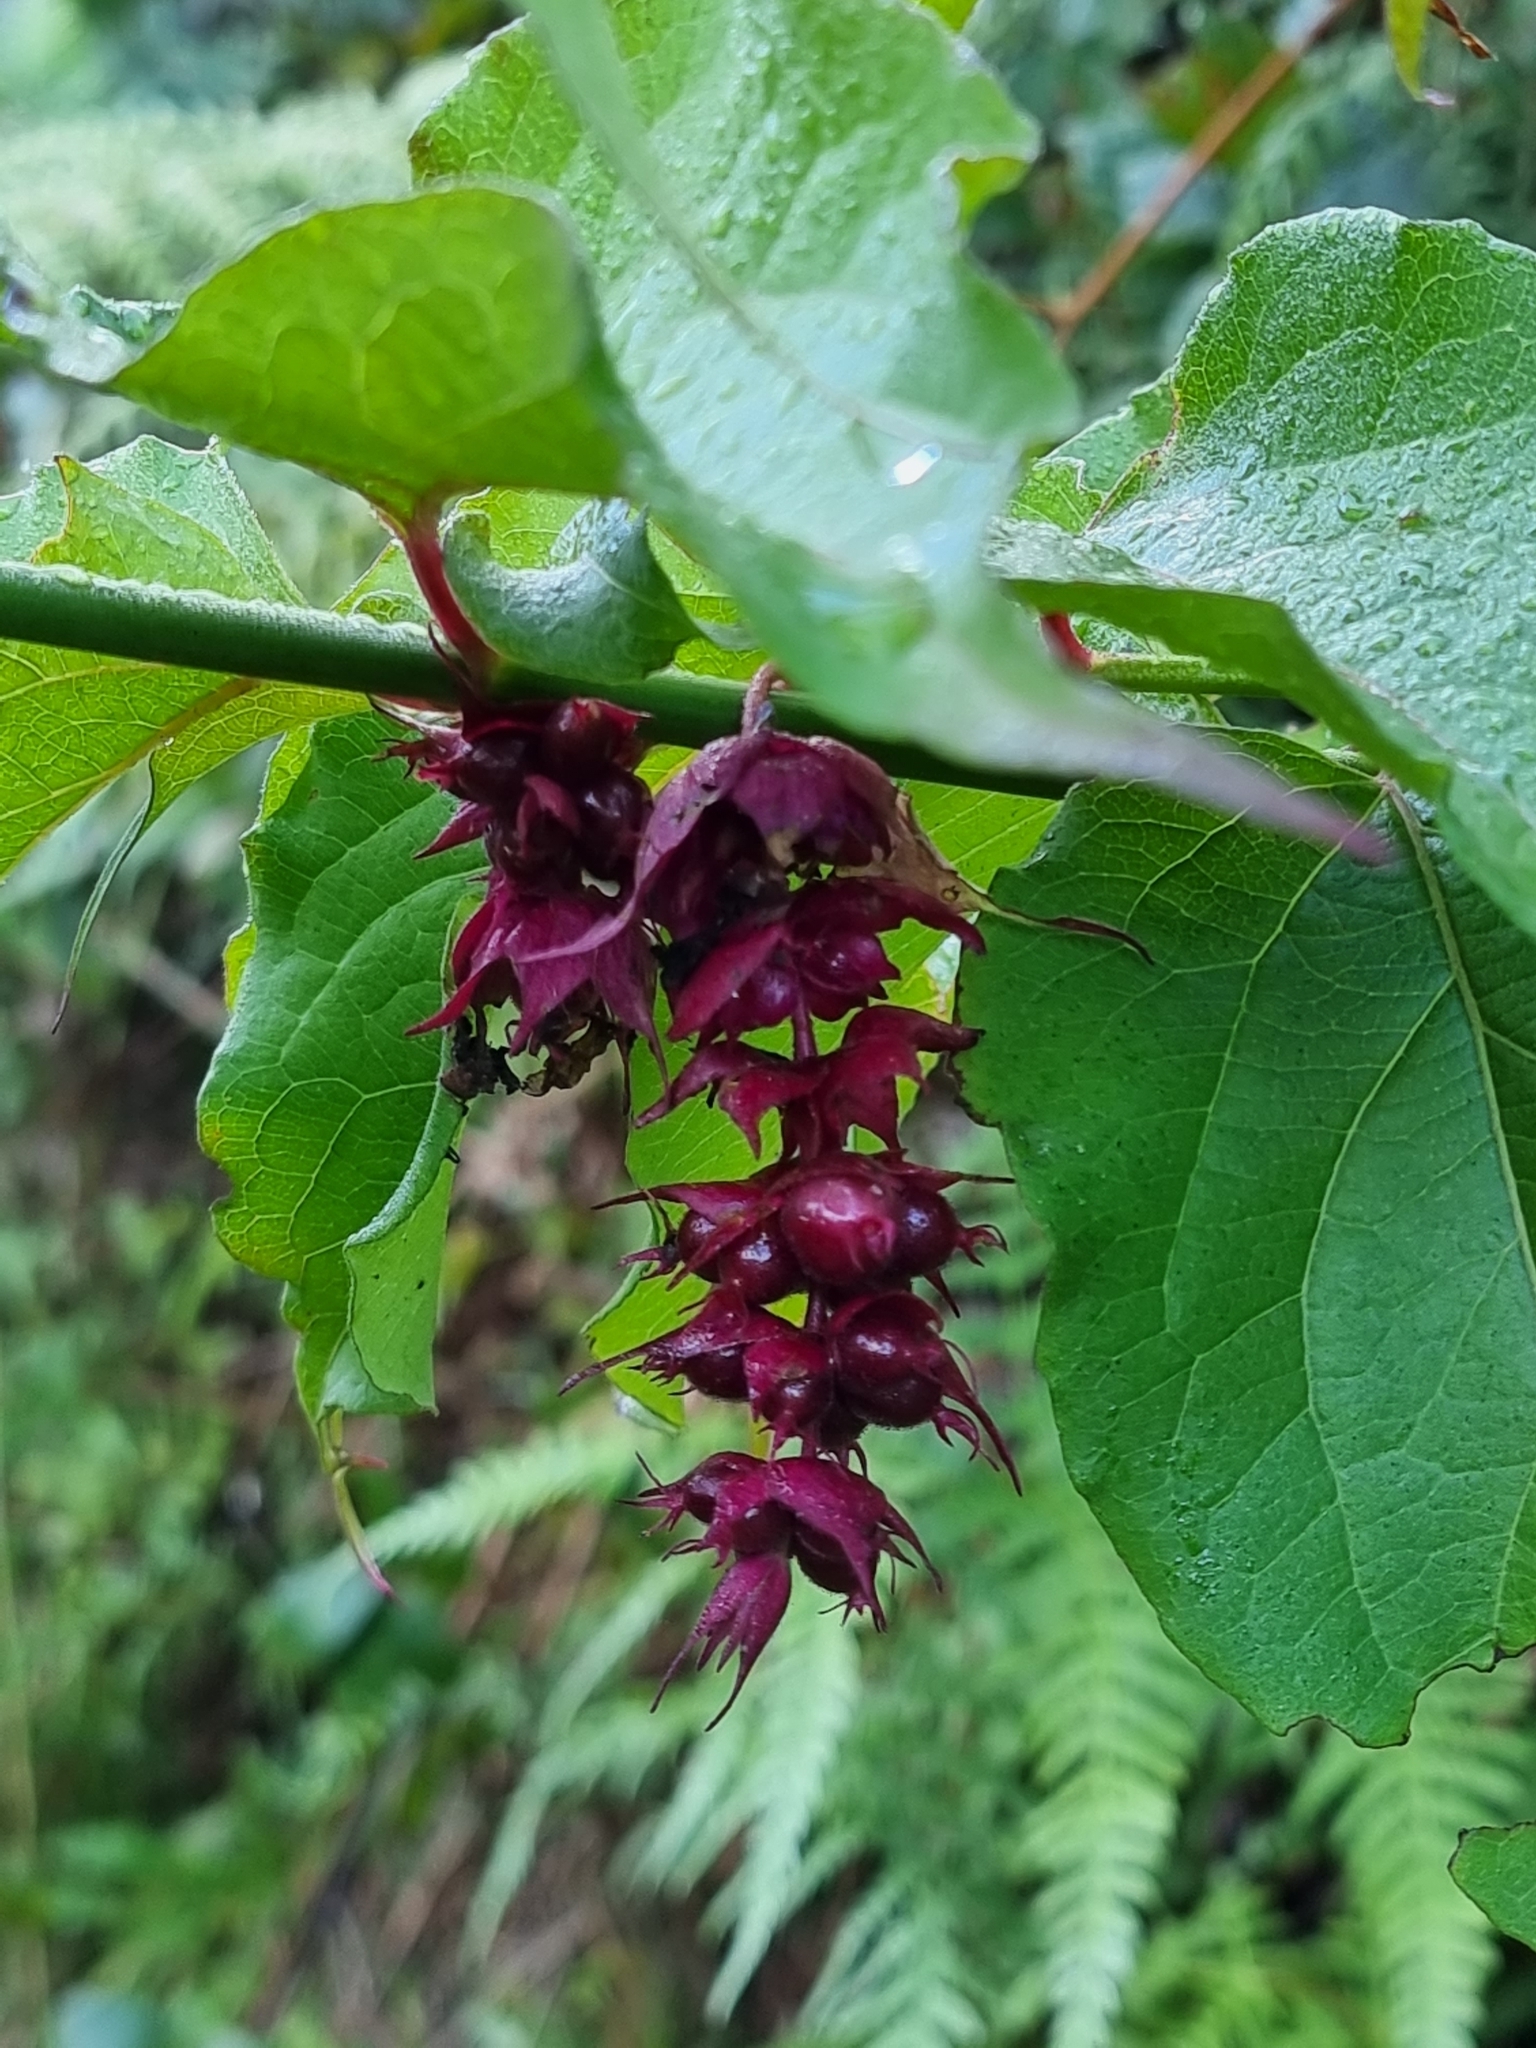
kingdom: Plantae
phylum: Tracheophyta
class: Magnoliopsida
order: Dipsacales
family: Caprifoliaceae
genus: Leycesteria
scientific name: Leycesteria formosa
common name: Himalayan honeysuckle
